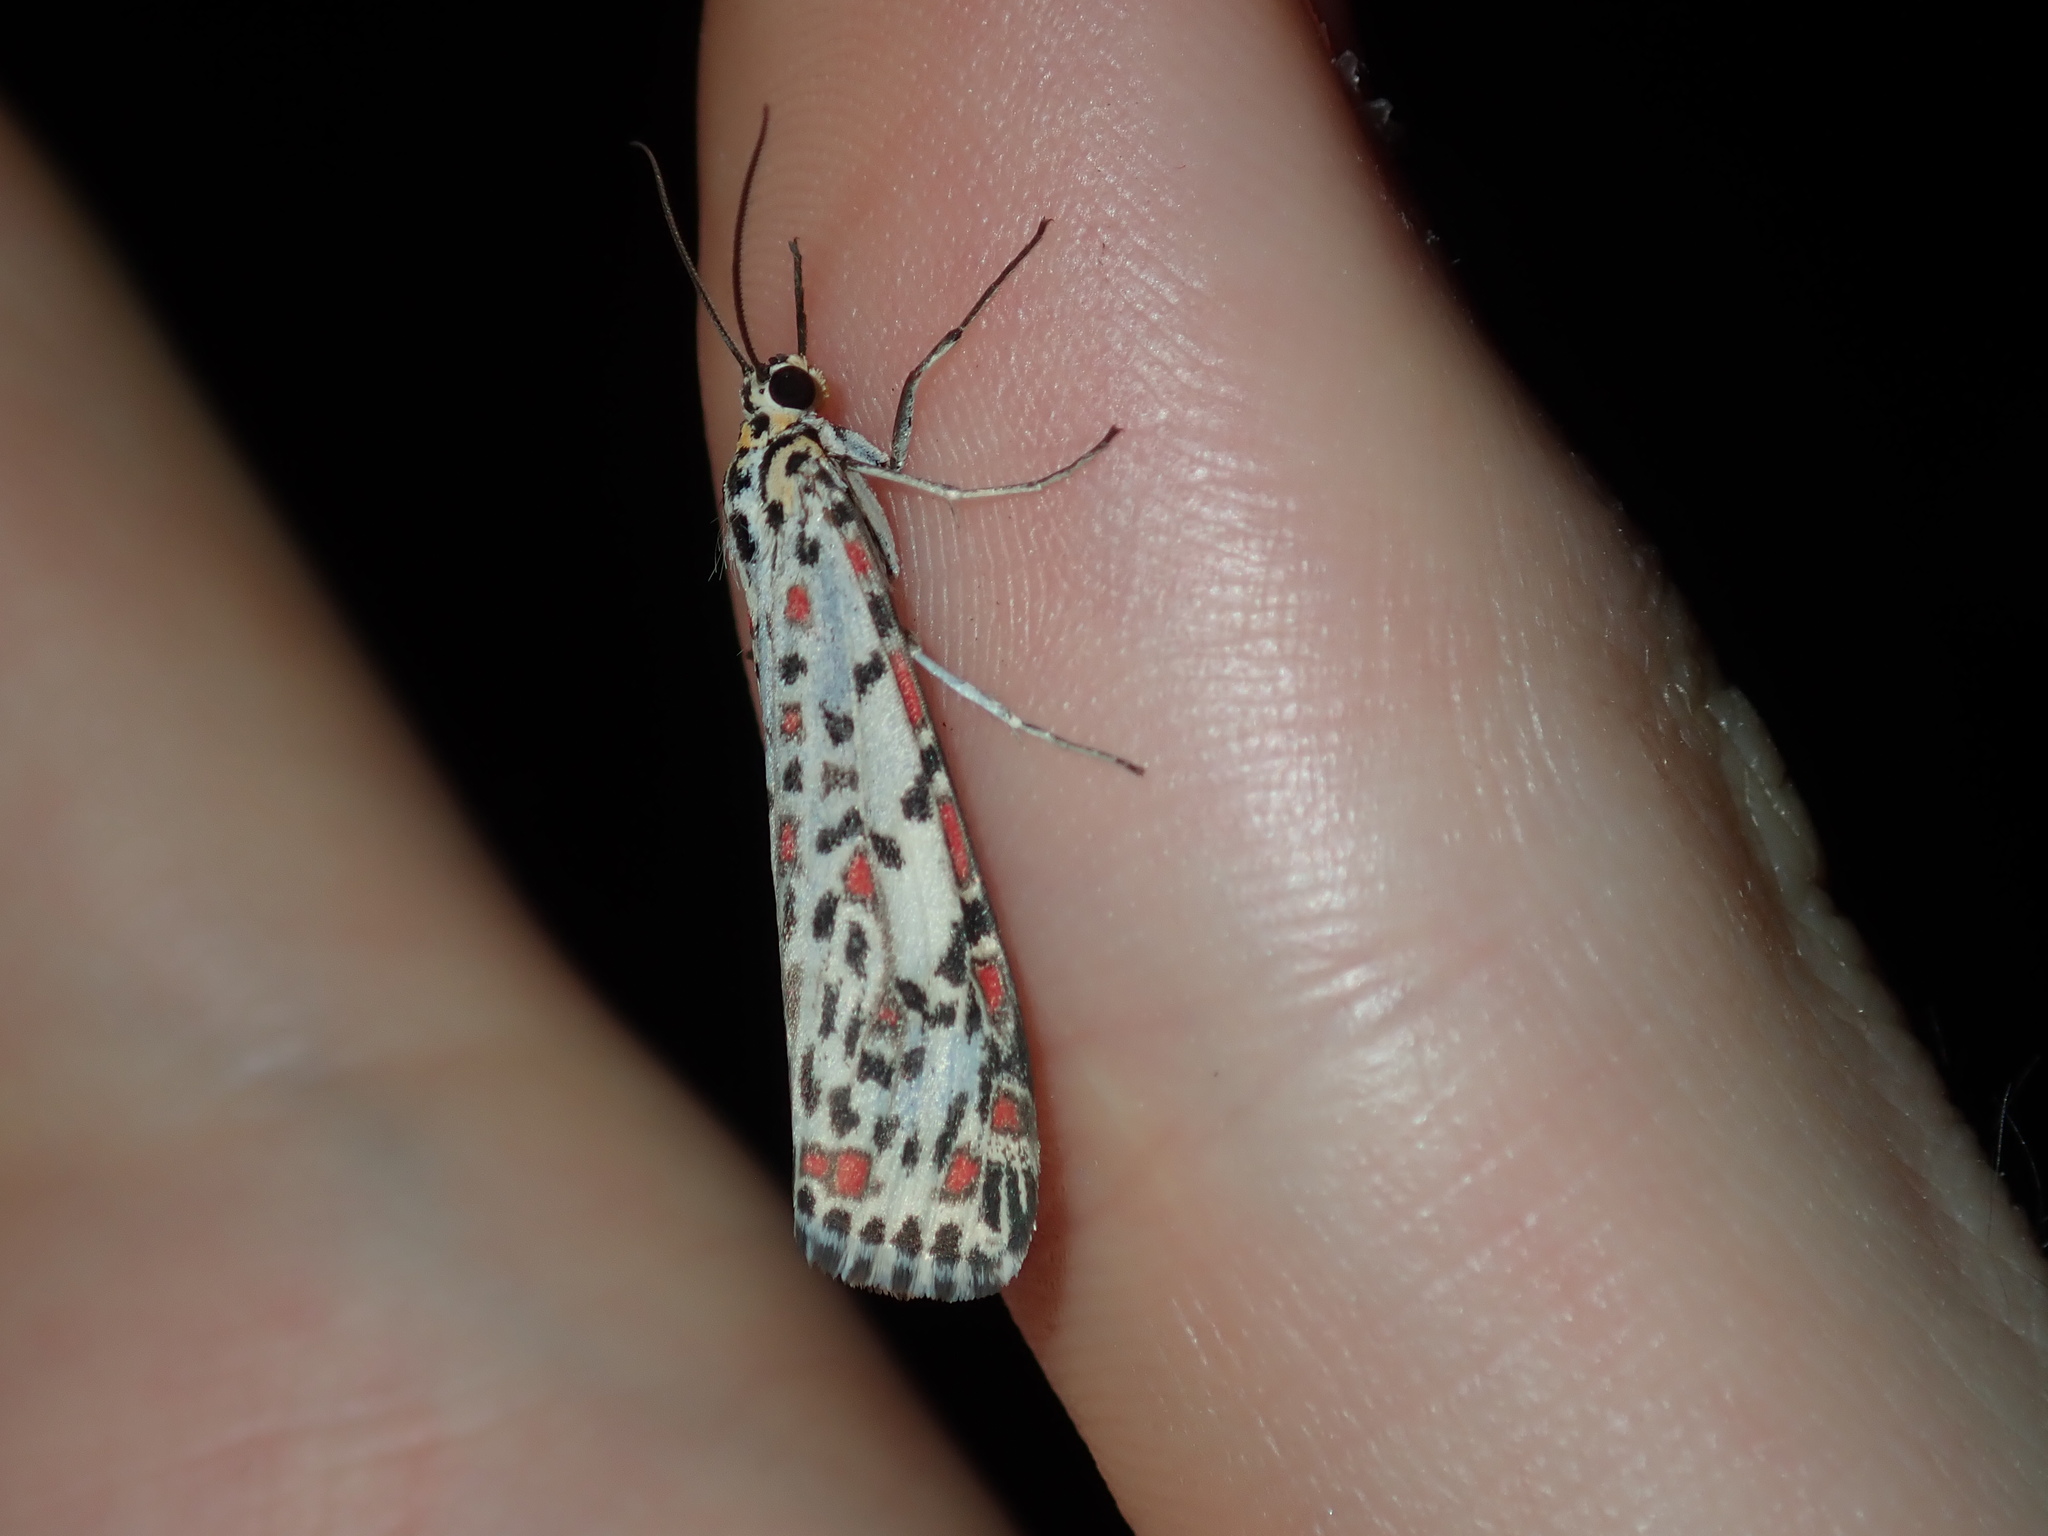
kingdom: Animalia
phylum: Arthropoda
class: Insecta
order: Lepidoptera
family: Erebidae
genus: Utetheisa
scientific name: Utetheisa pulchelloides
